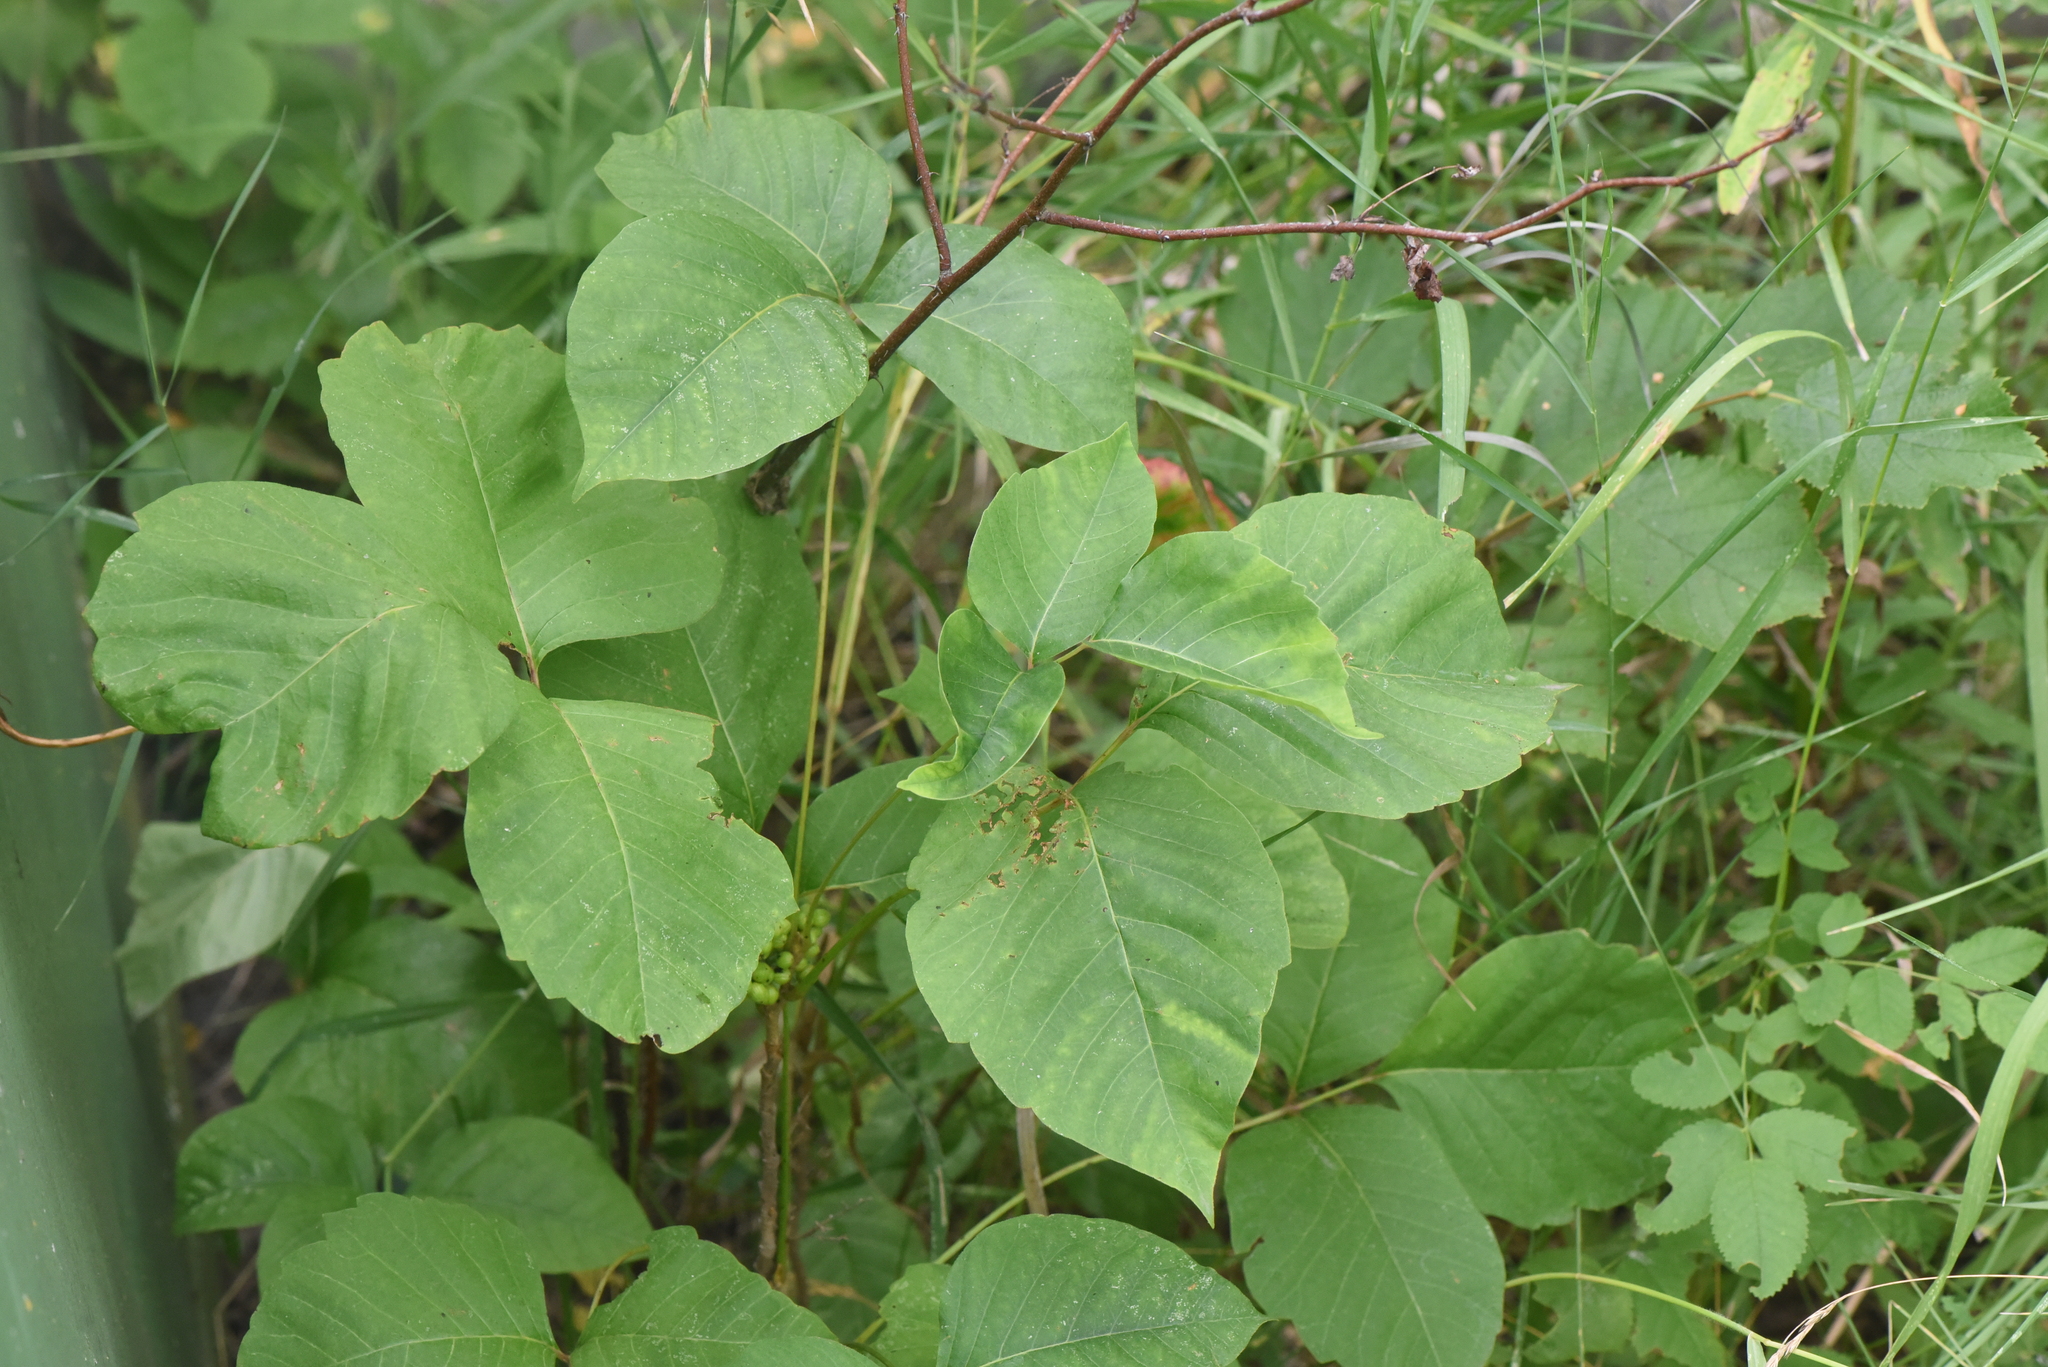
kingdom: Plantae
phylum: Tracheophyta
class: Magnoliopsida
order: Sapindales
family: Anacardiaceae
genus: Toxicodendron
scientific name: Toxicodendron rydbergii
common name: Rydberg's poison-ivy
